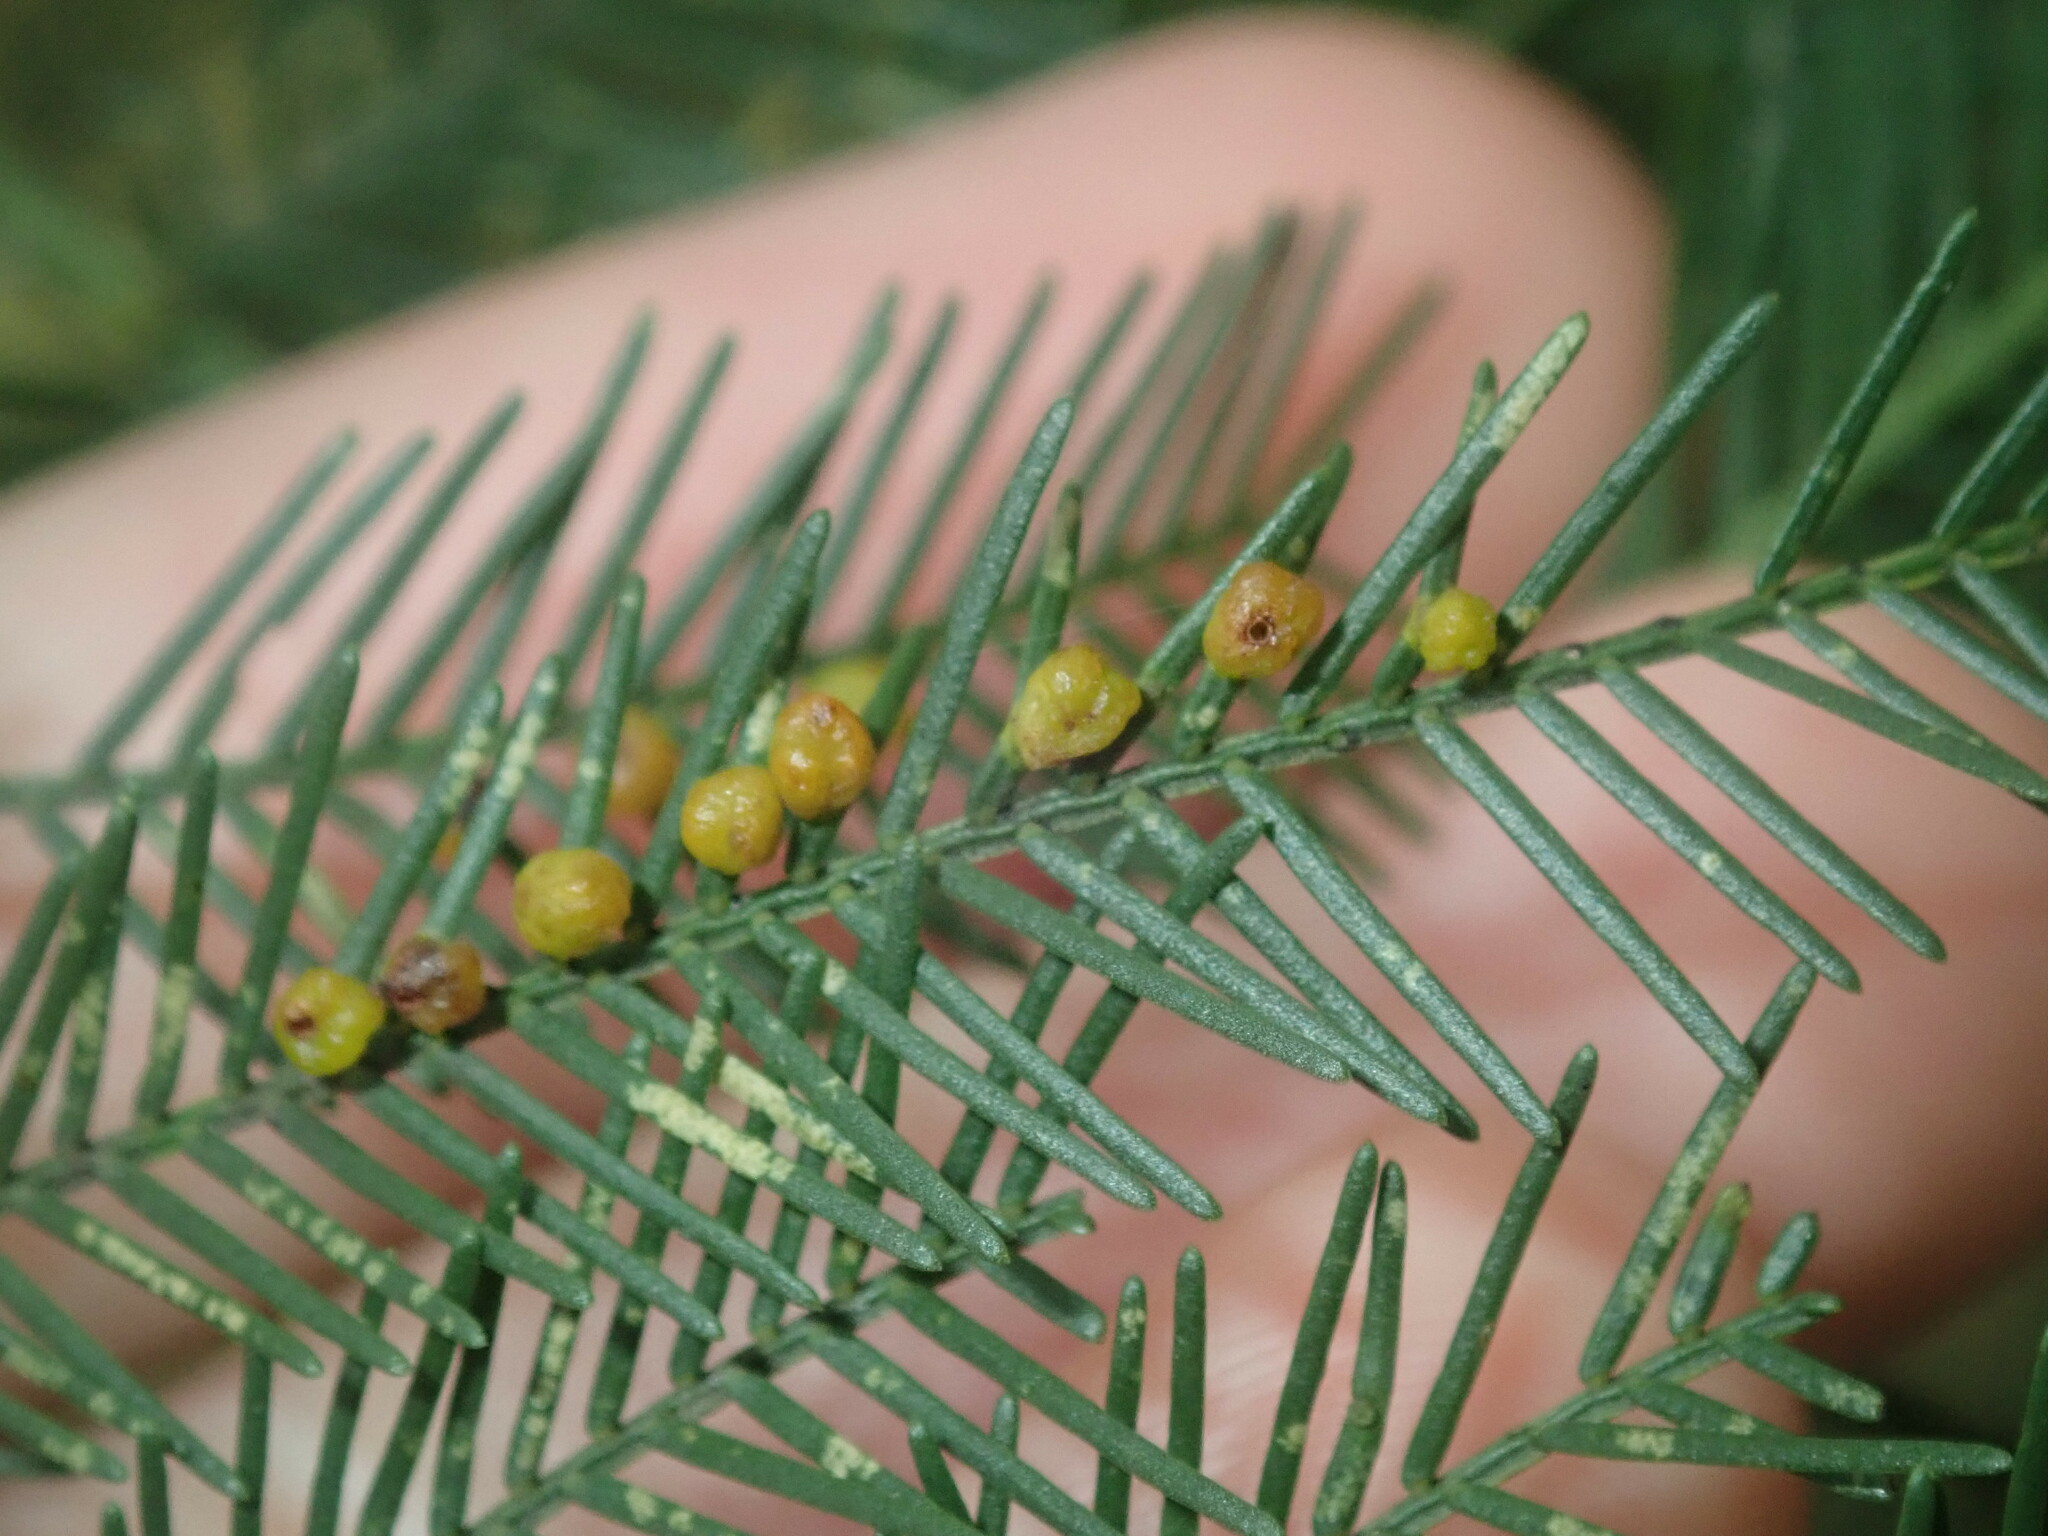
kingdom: Animalia
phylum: Arthropoda
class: Insecta
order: Diptera
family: Cecidomyiidae
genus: Austroacacidiplosis
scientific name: Austroacacidiplosis botrycephalae
